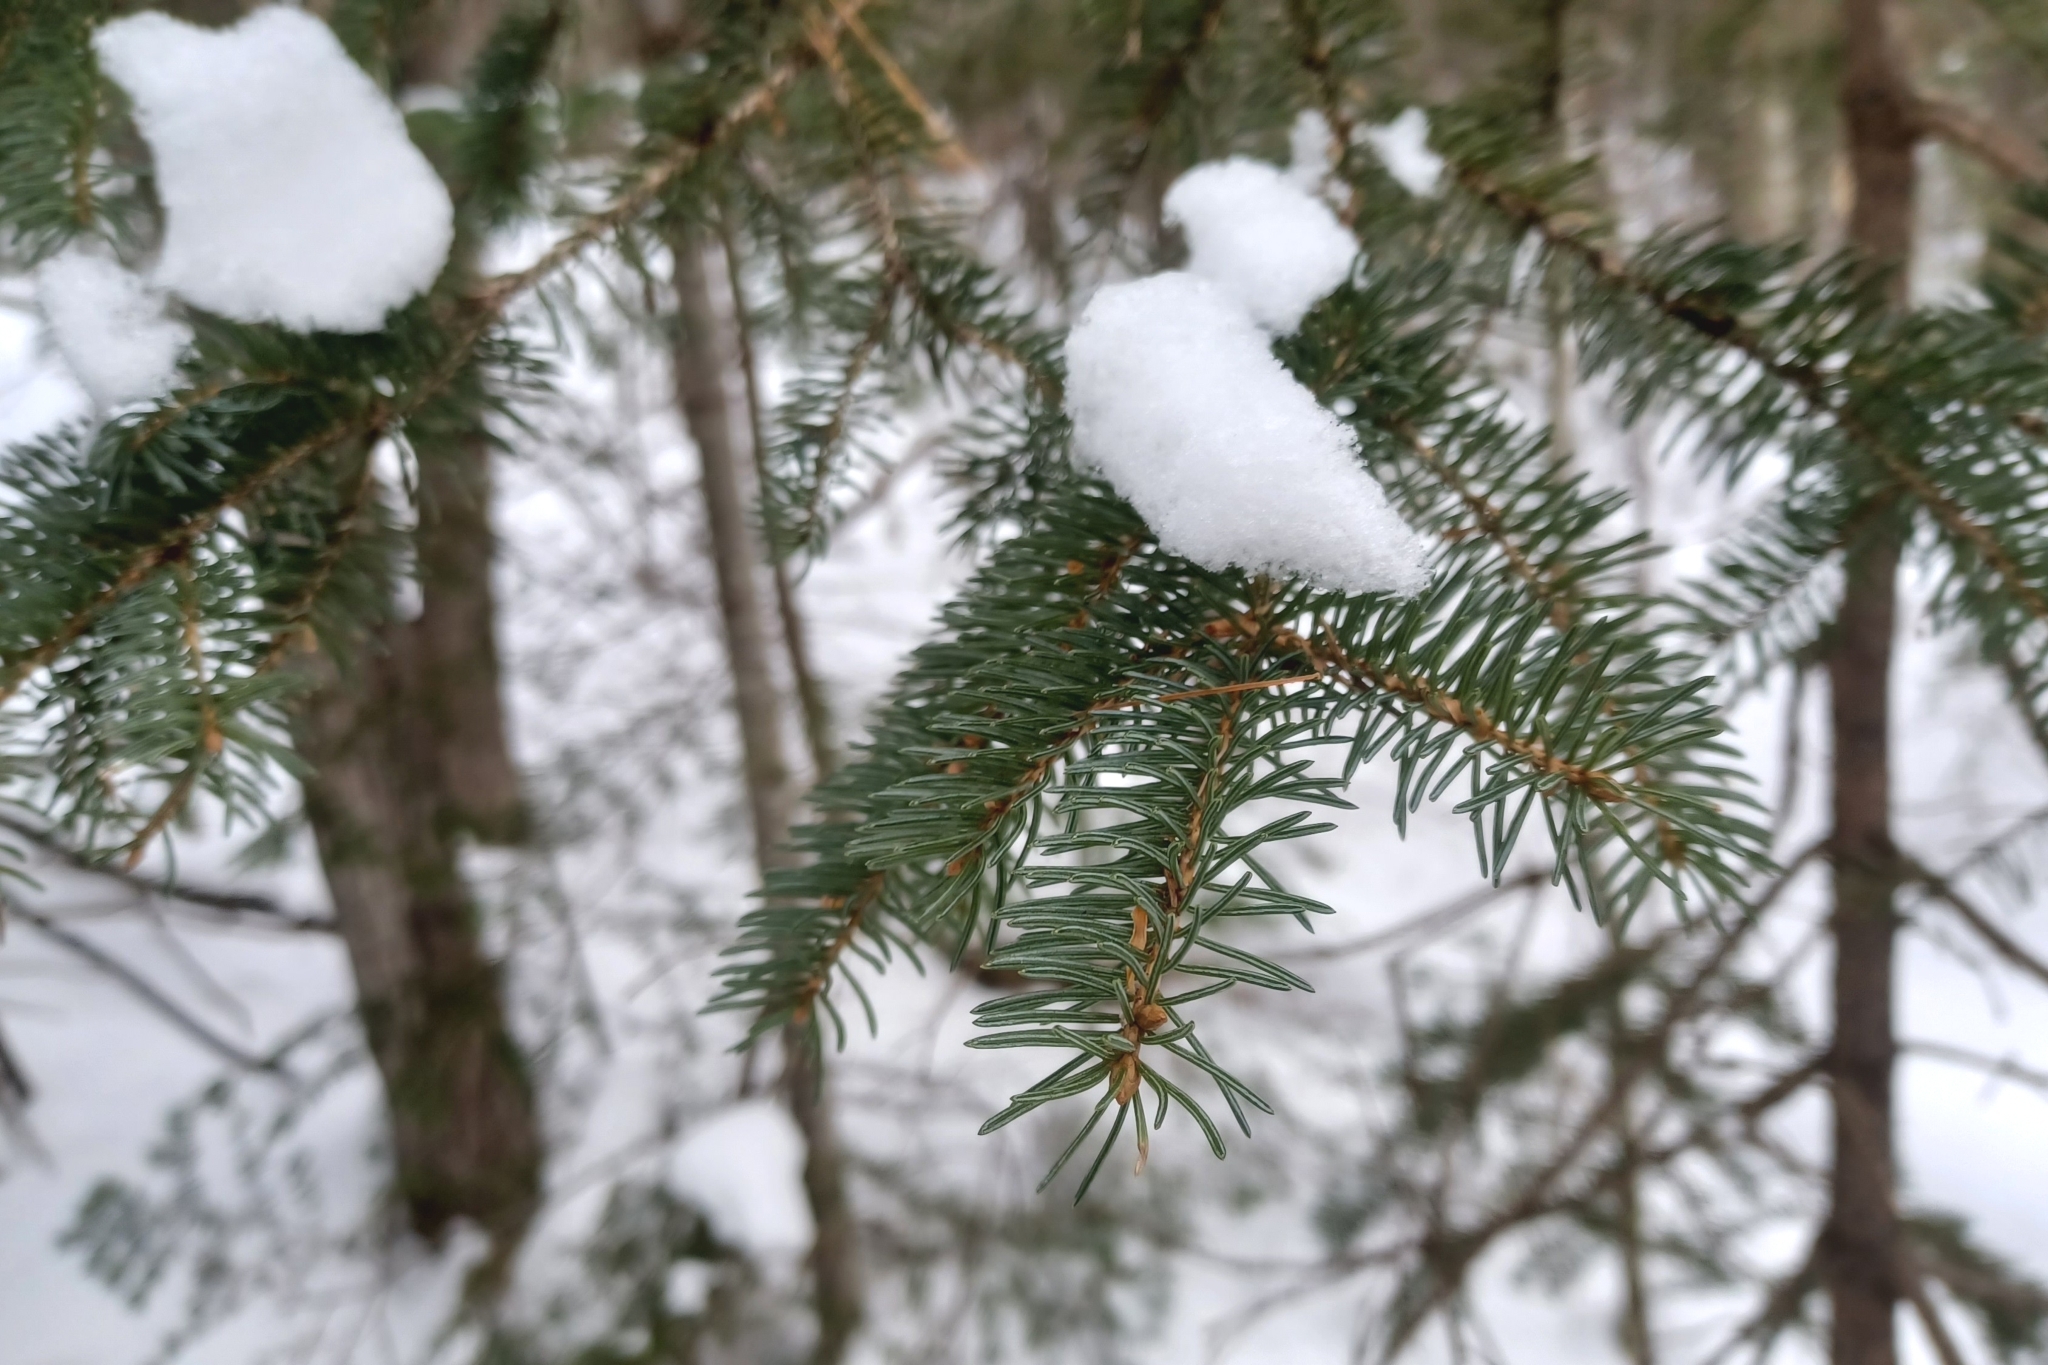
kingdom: Plantae
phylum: Tracheophyta
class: Pinopsida
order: Pinales
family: Pinaceae
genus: Picea
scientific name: Picea glauca
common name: White spruce
